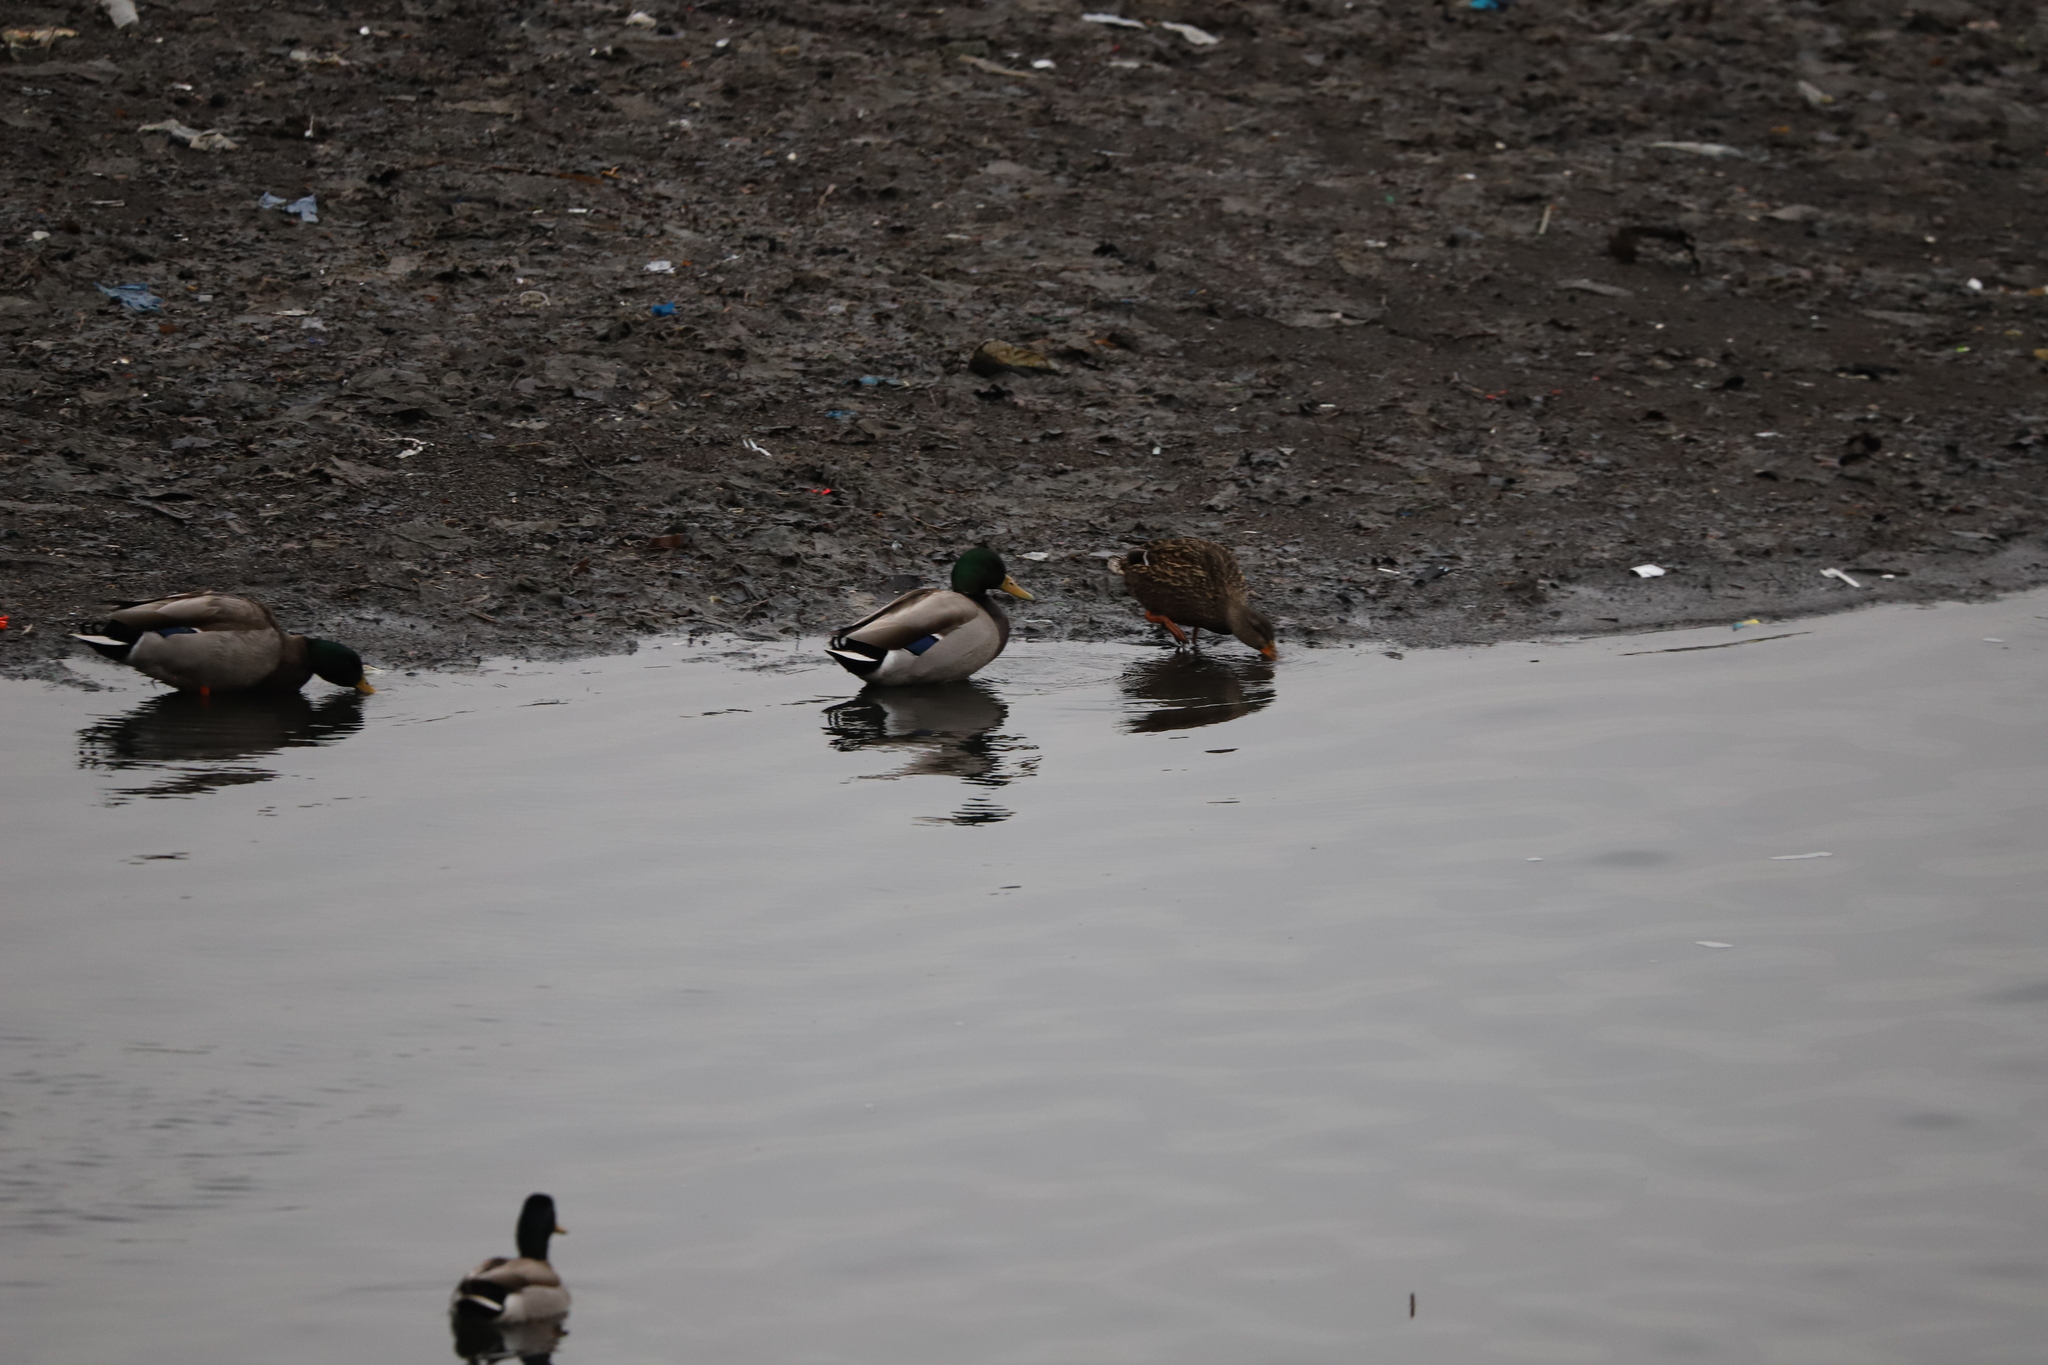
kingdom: Animalia
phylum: Chordata
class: Aves
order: Anseriformes
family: Anatidae
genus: Anas
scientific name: Anas platyrhynchos
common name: Mallard
